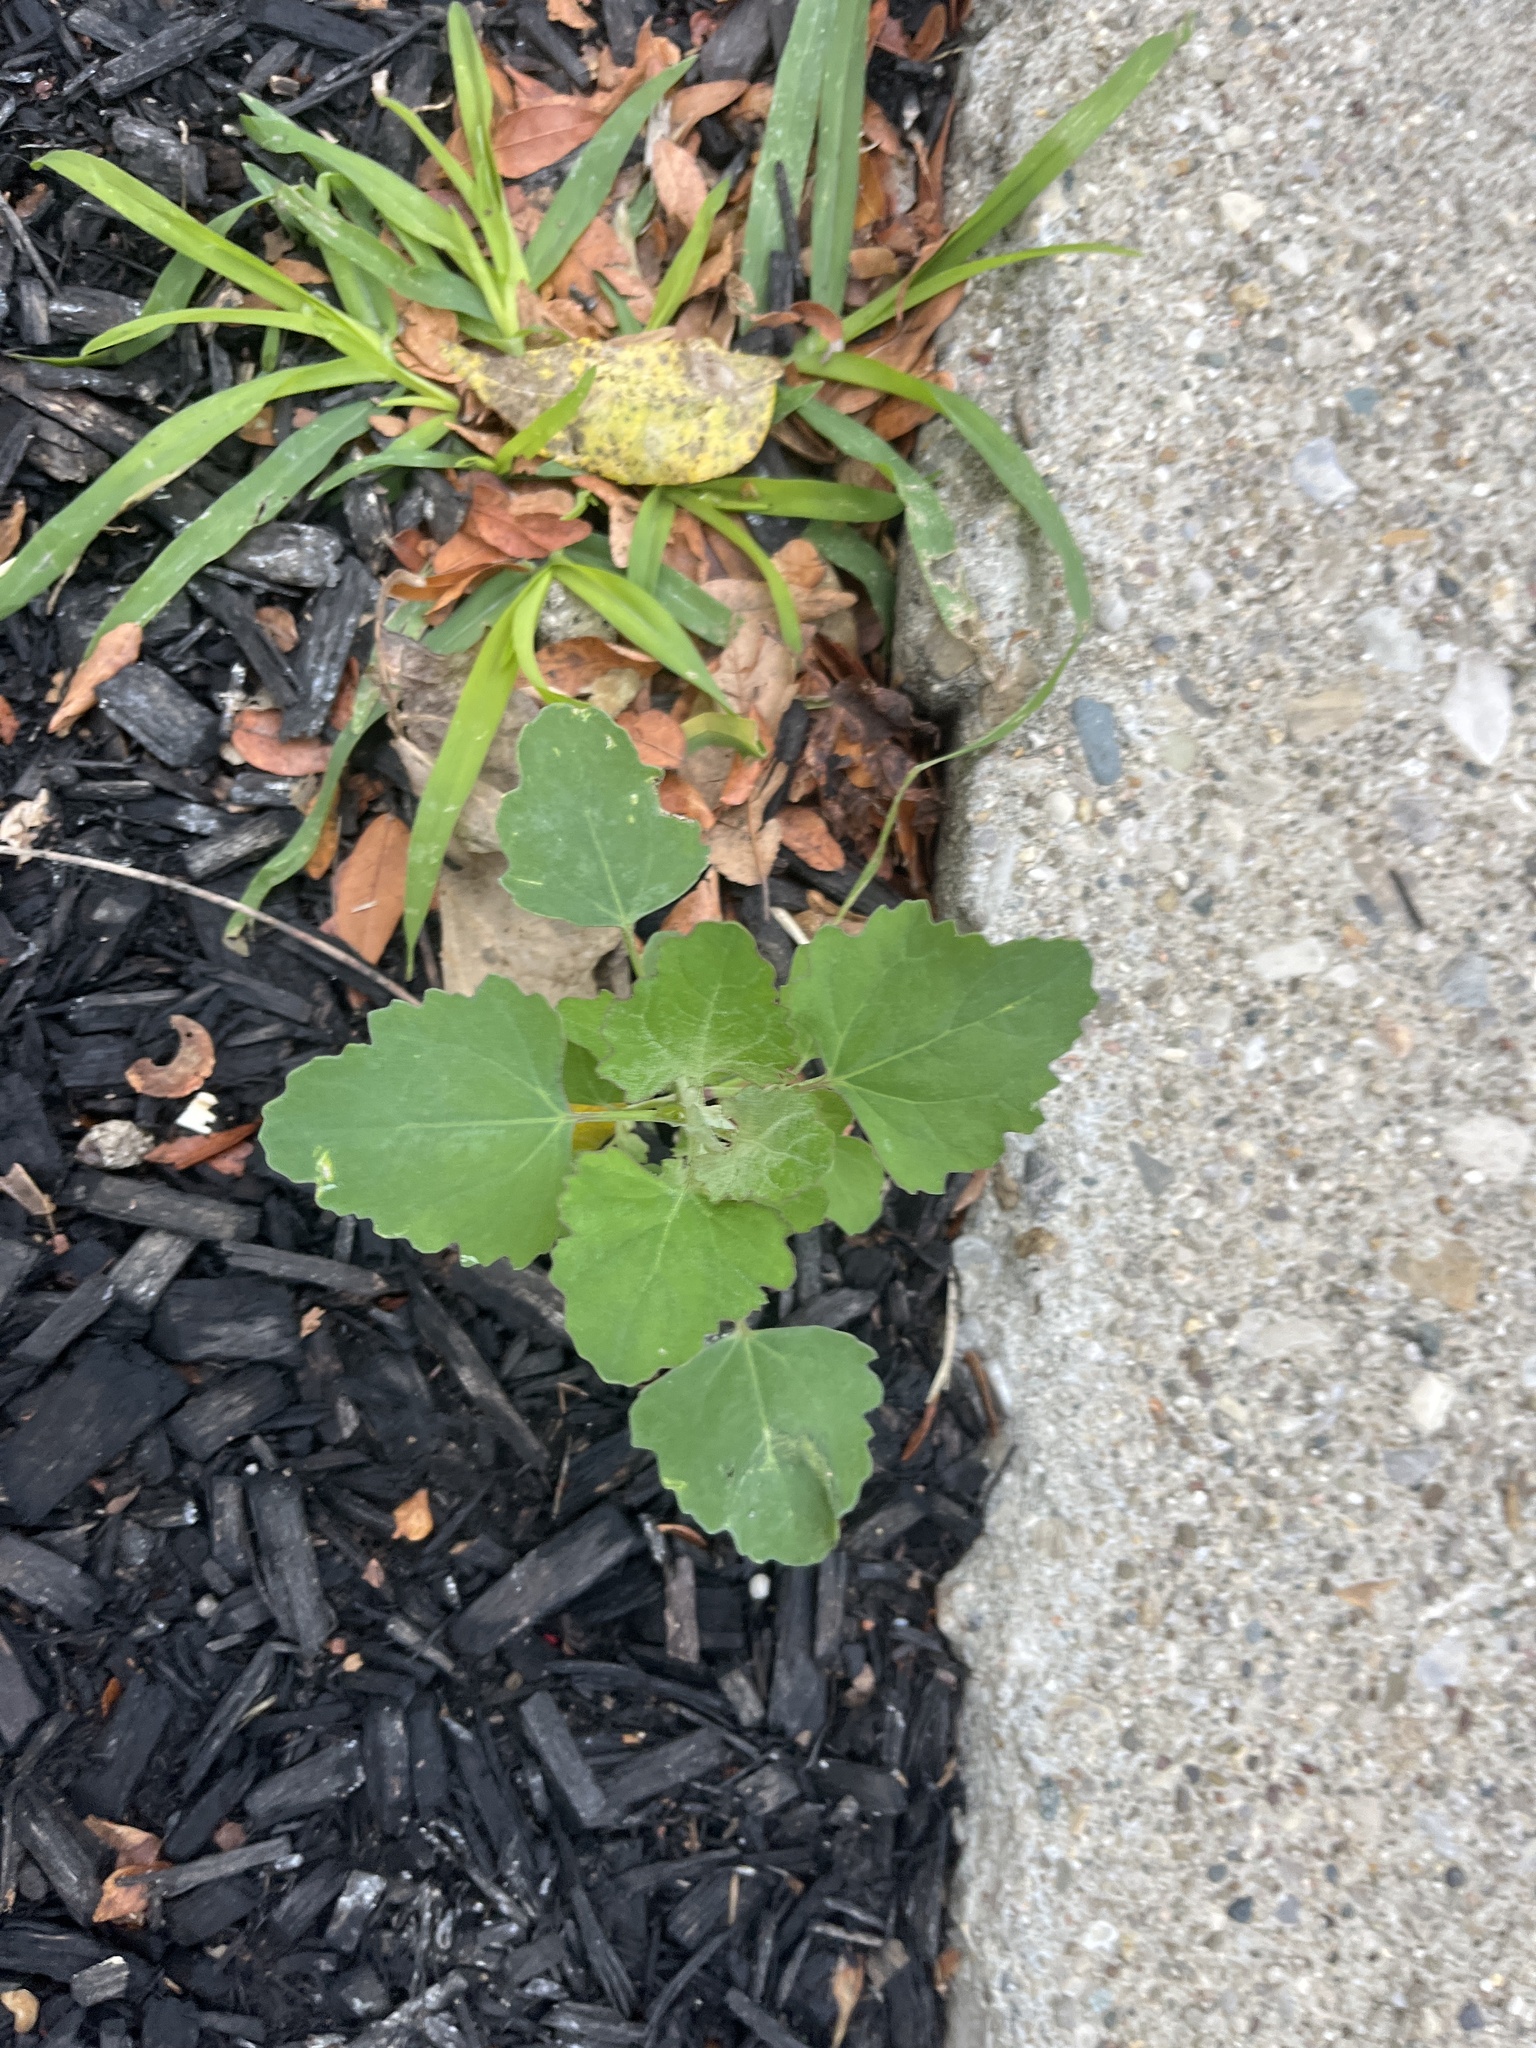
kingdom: Plantae
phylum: Tracheophyta
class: Magnoliopsida
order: Caryophyllales
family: Amaranthaceae
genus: Chenopodium
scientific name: Chenopodium album
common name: Fat-hen
